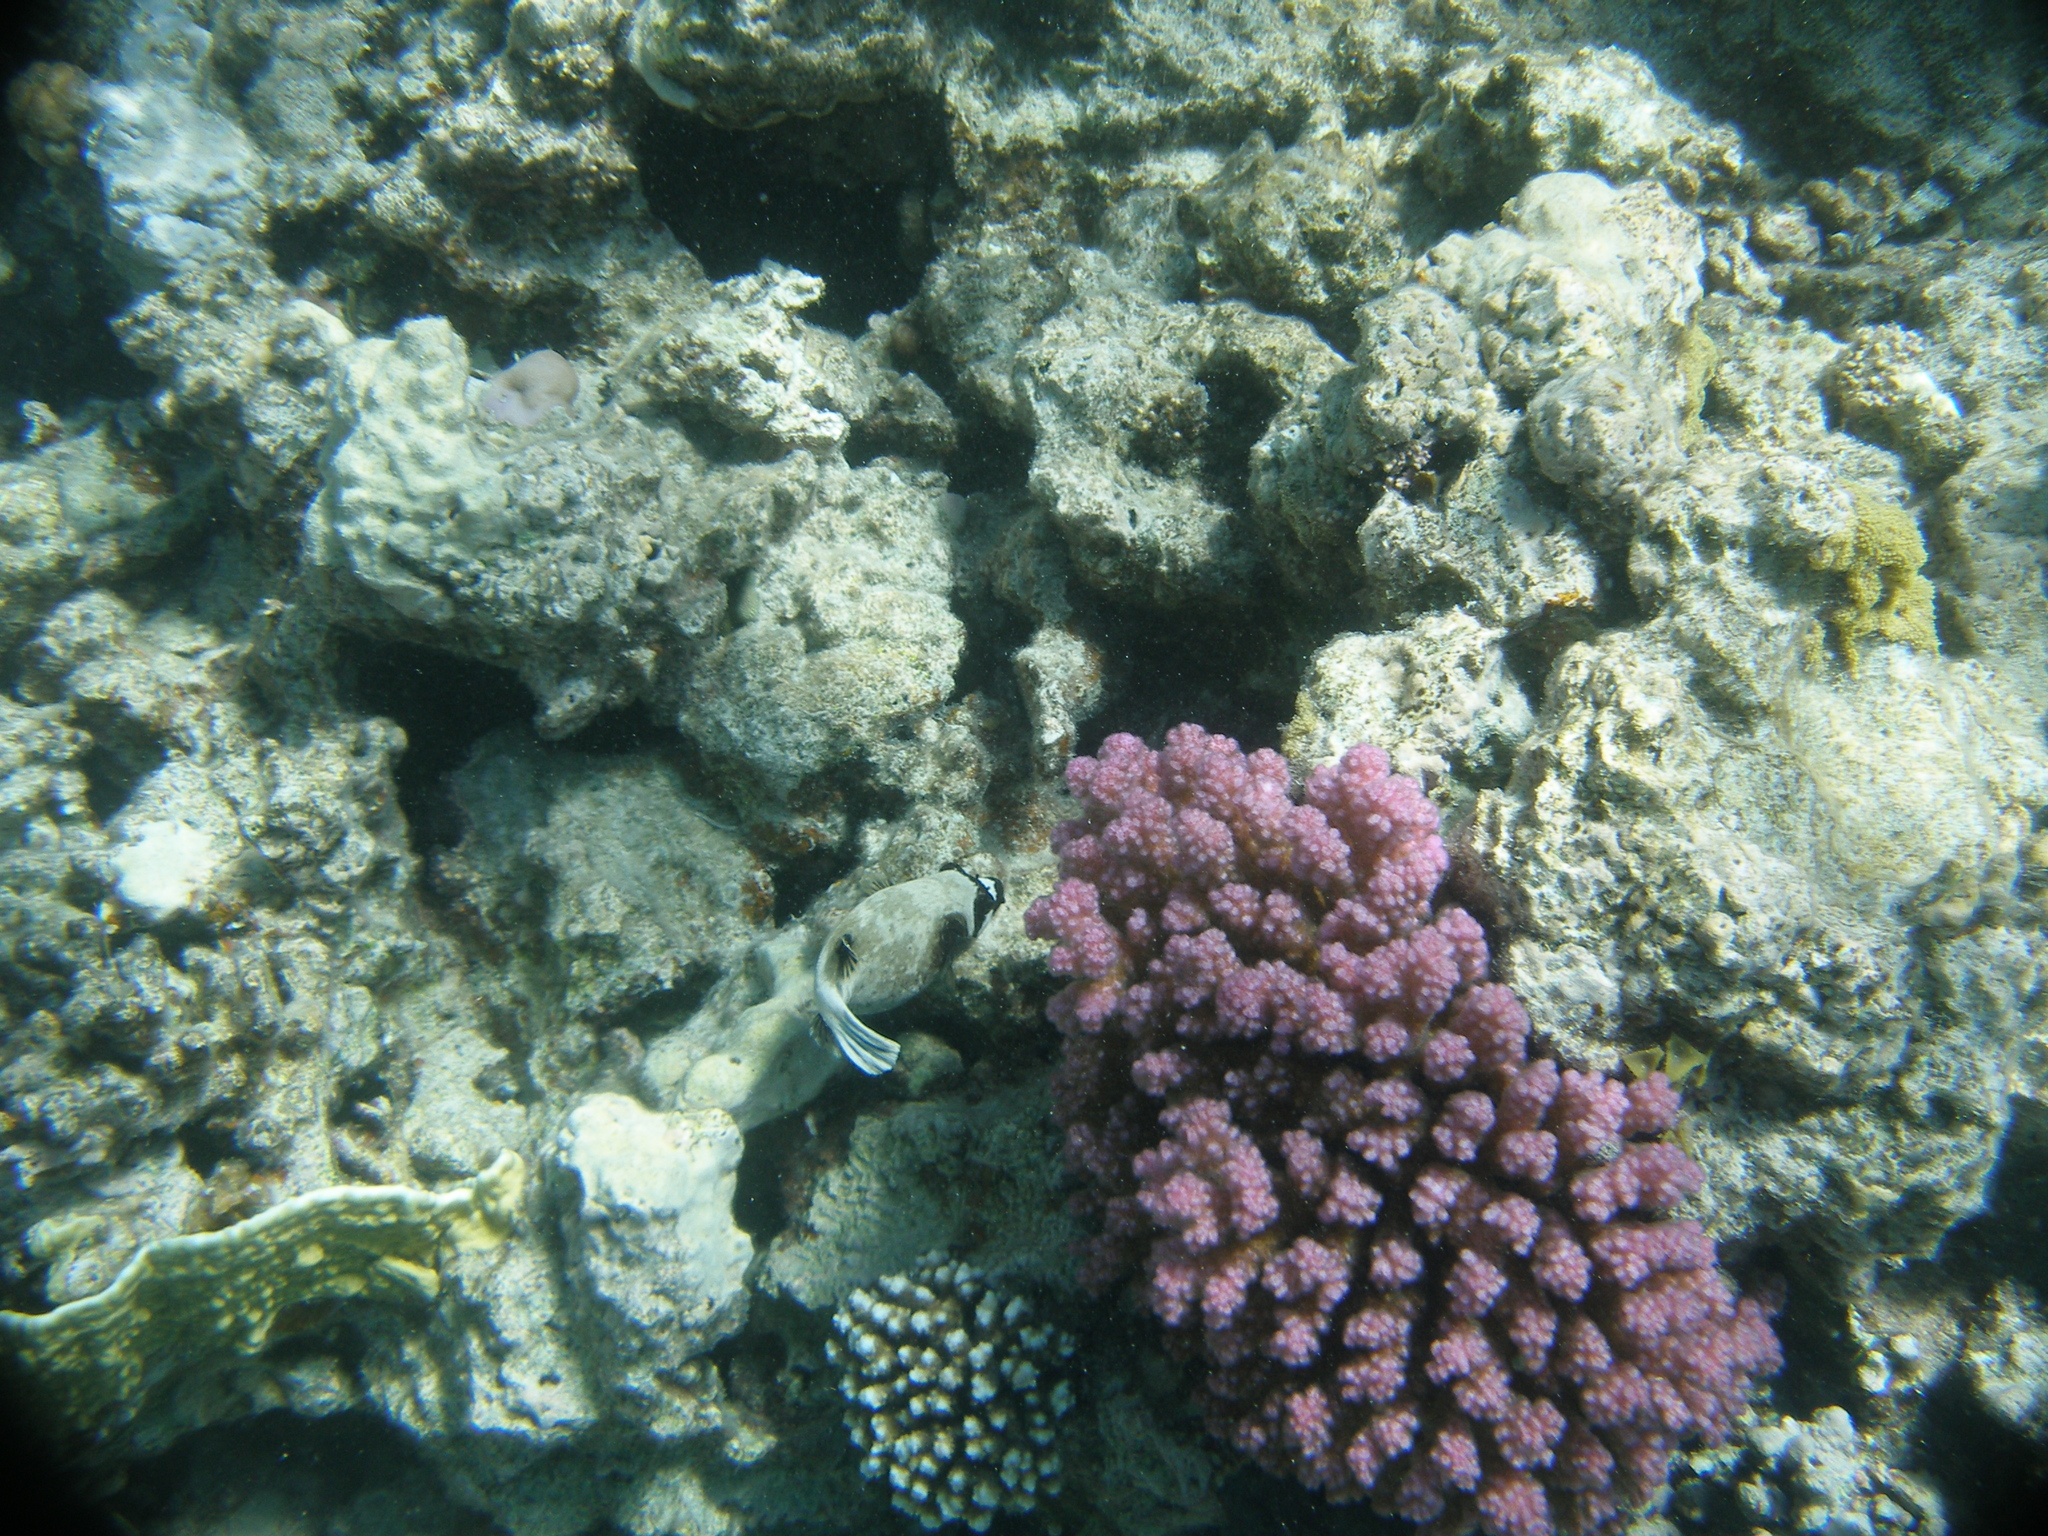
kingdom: Animalia
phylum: Chordata
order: Tetraodontiformes
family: Tetraodontidae
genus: Arothron
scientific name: Arothron diadematus
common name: Masked puffer
